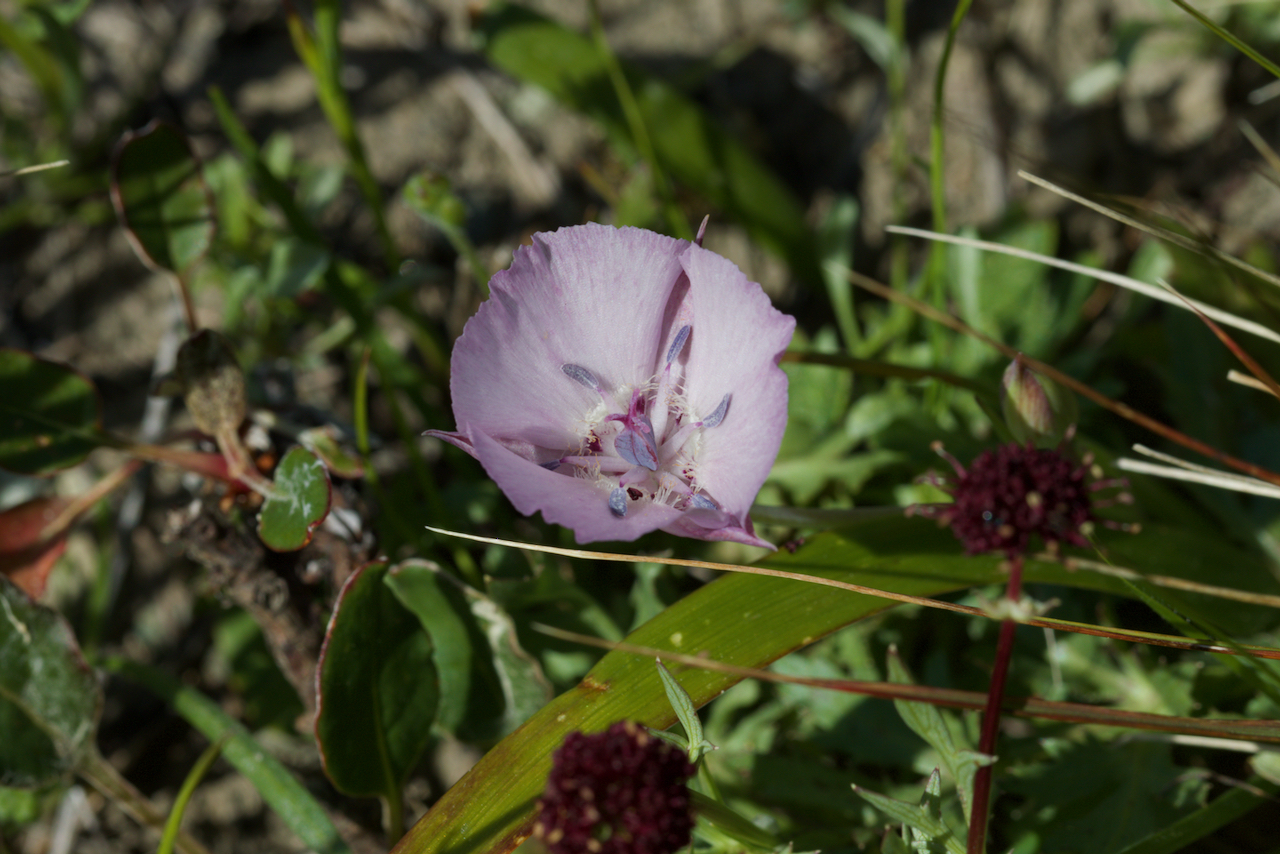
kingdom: Plantae
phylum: Tracheophyta
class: Liliopsida
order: Liliales
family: Liliaceae
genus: Calochortus
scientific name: Calochortus umbellatus
